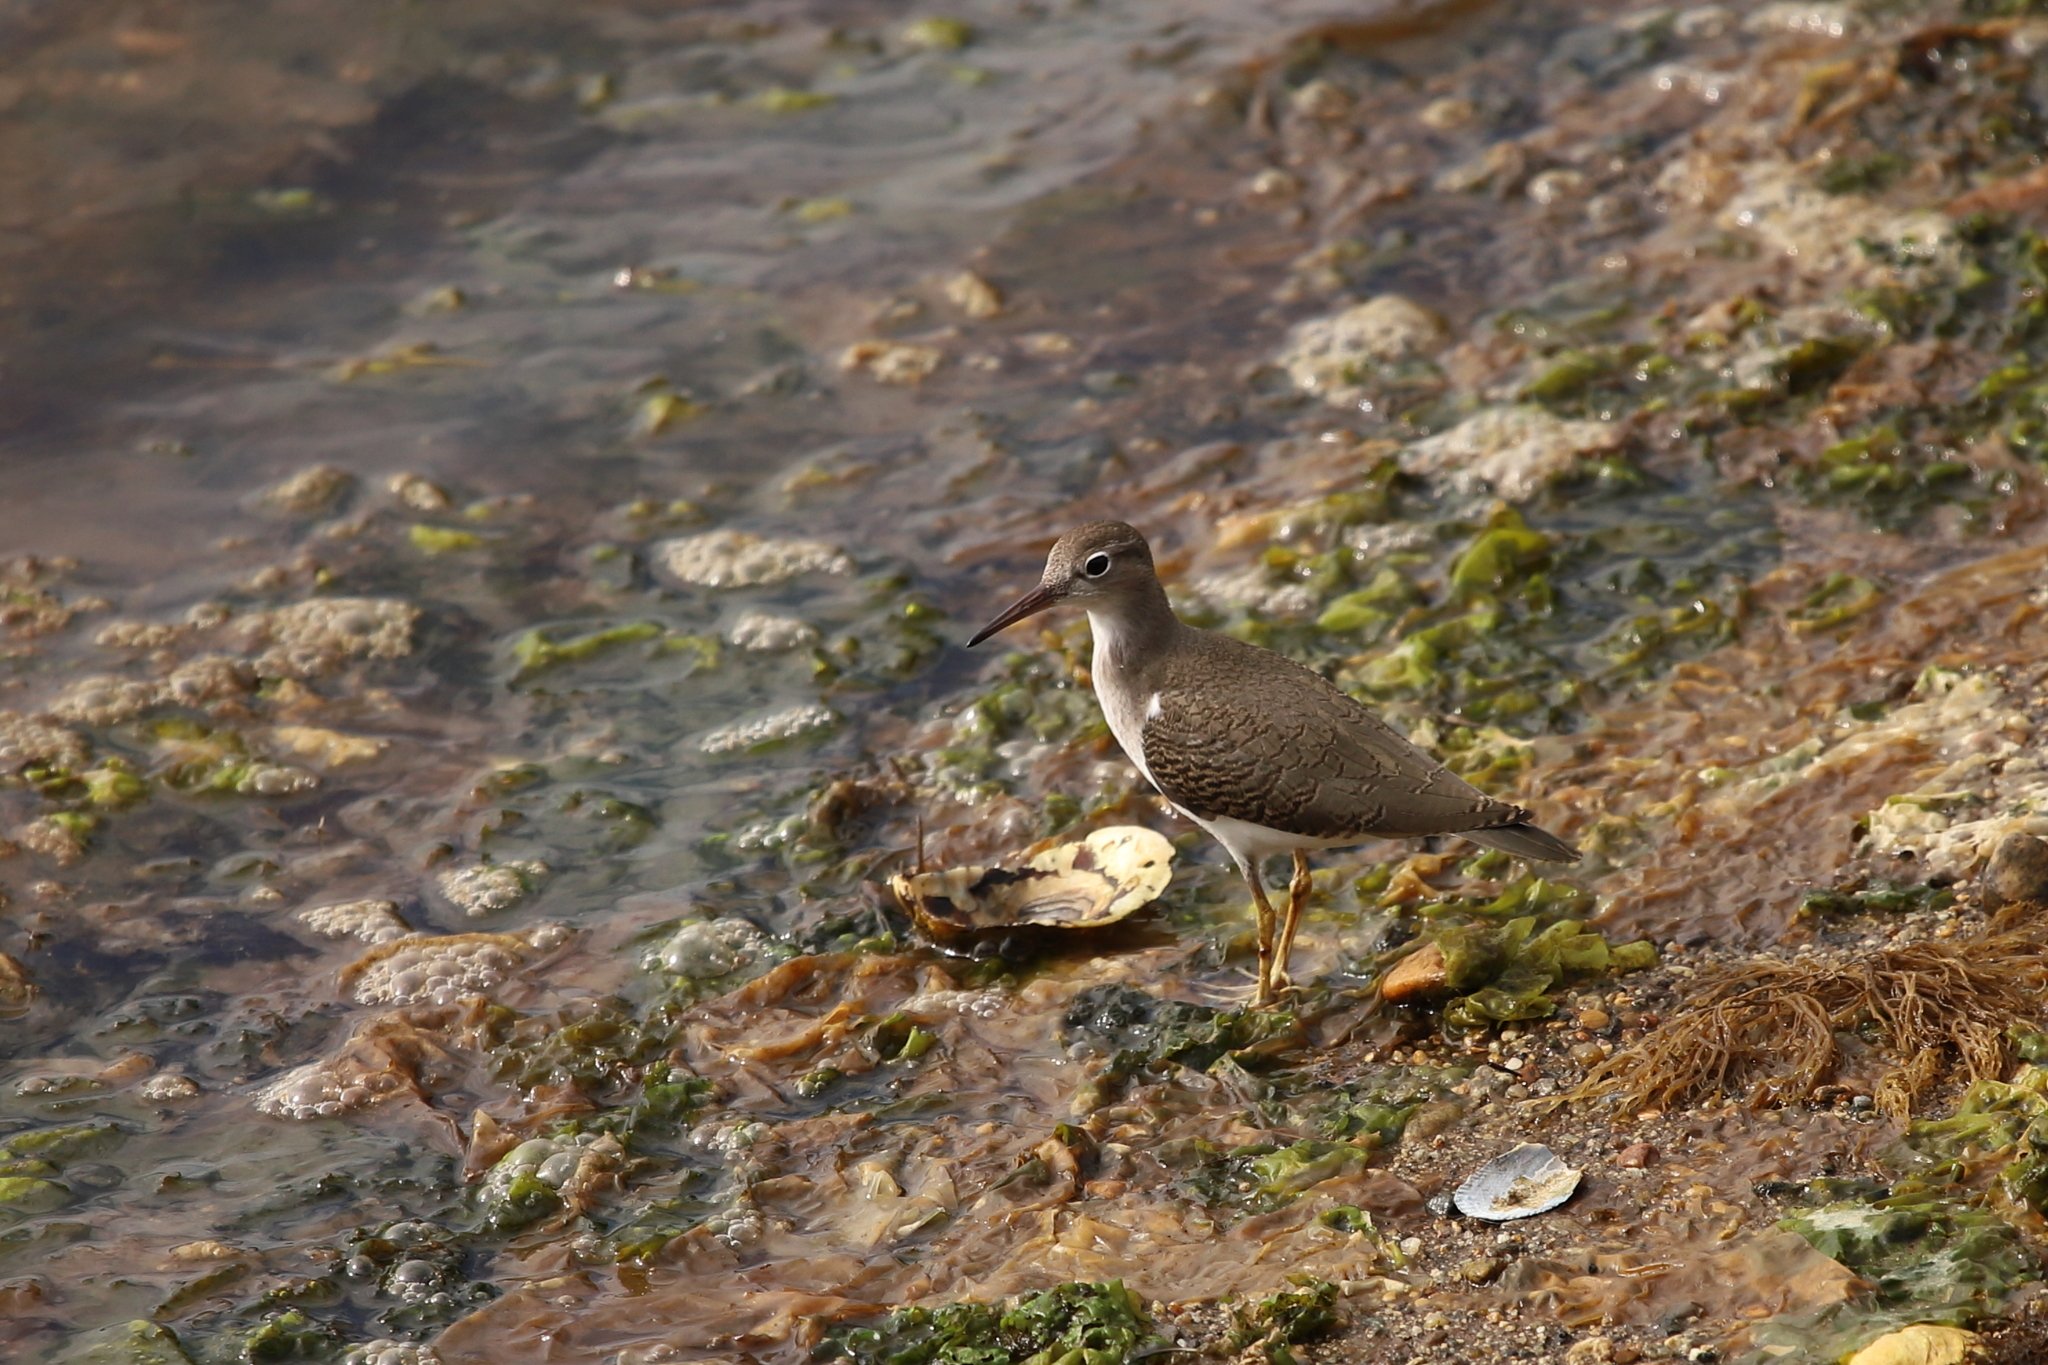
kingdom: Animalia
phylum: Chordata
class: Aves
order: Charadriiformes
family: Scolopacidae
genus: Actitis
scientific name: Actitis macularius
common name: Spotted sandpiper
